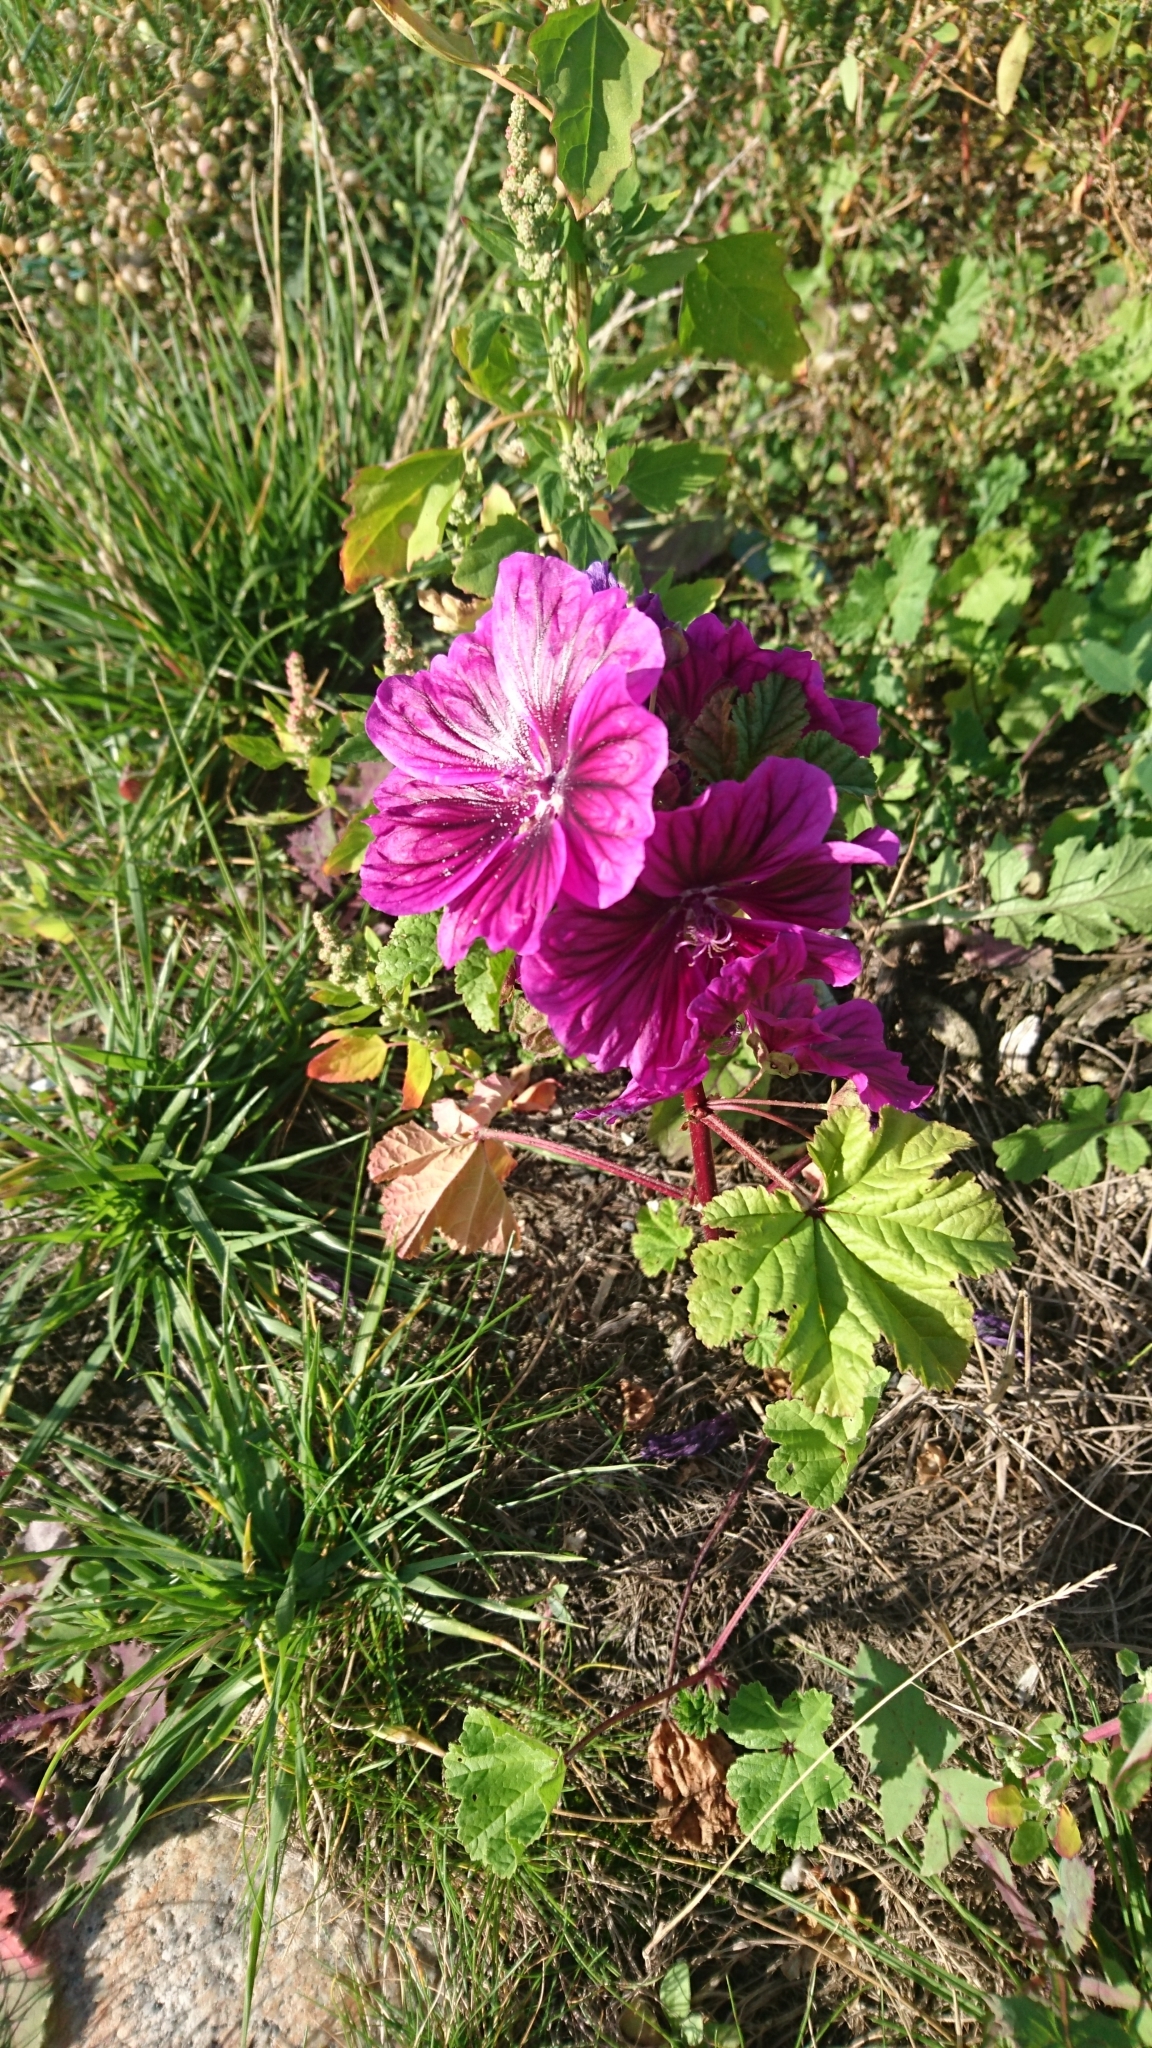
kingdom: Plantae
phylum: Tracheophyta
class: Magnoliopsida
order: Malvales
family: Malvaceae
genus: Malva
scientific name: Malva sylvestris
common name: Common mallow
